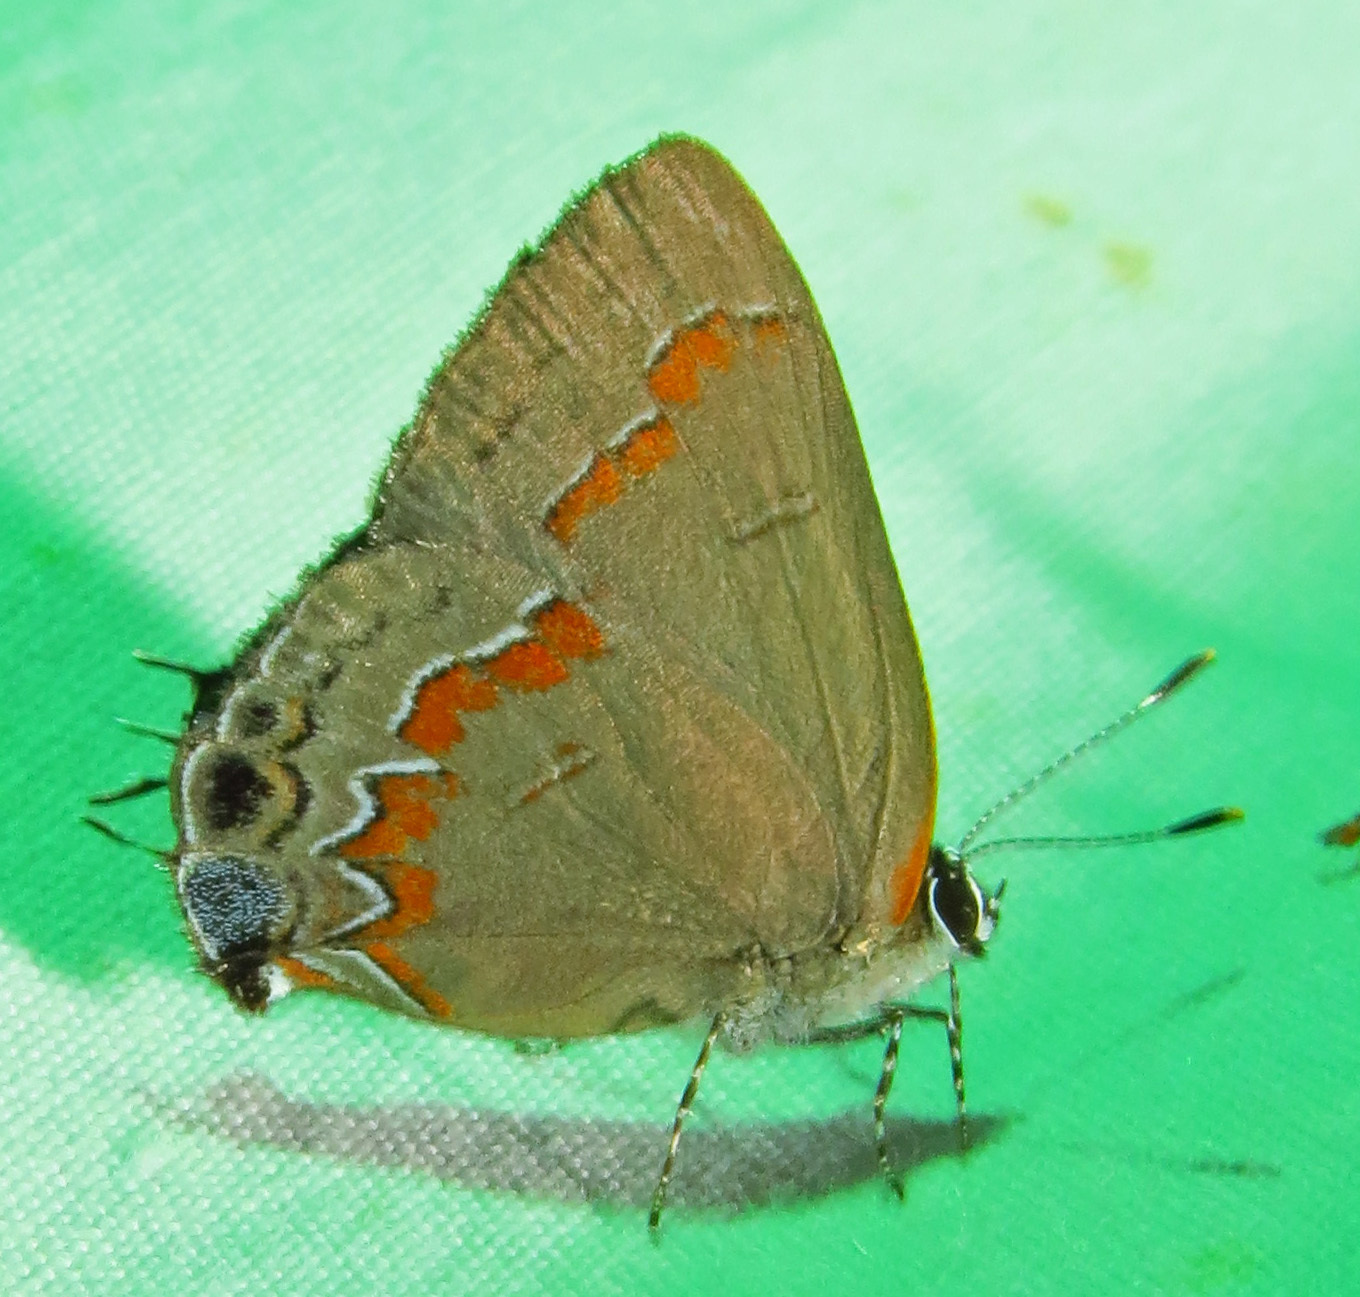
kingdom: Animalia
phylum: Arthropoda
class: Insecta
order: Lepidoptera
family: Lycaenidae
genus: Calycopis
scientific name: Calycopis cecrops
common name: Red-banded hairstreak
